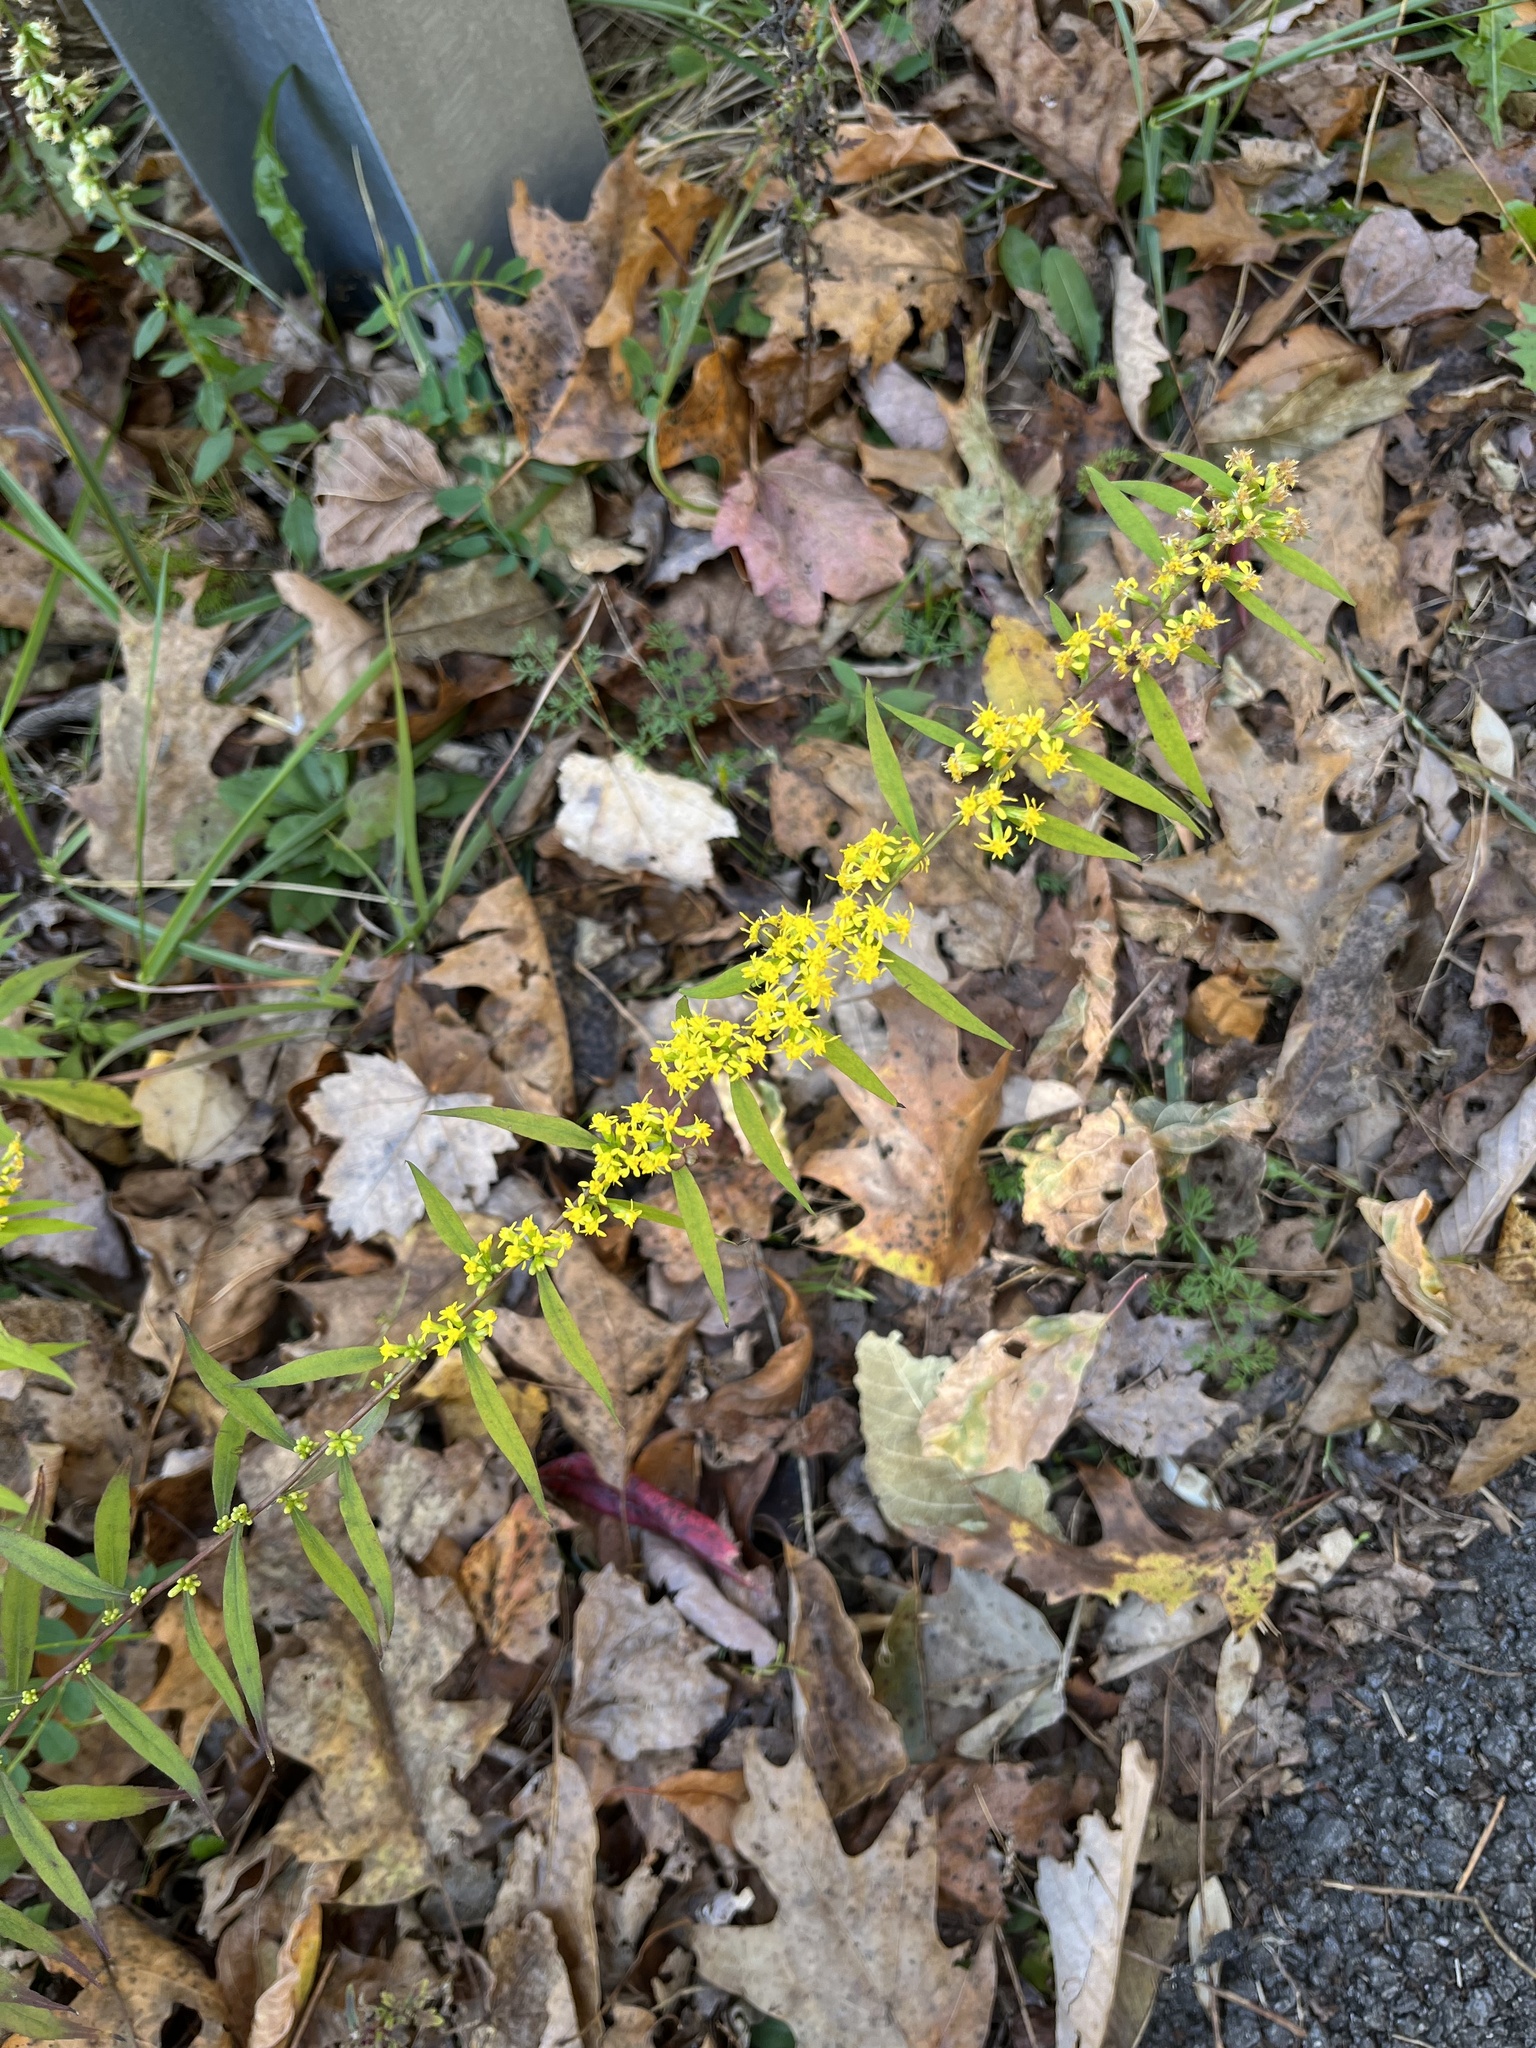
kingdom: Plantae
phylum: Tracheophyta
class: Magnoliopsida
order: Asterales
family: Asteraceae
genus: Solidago
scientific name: Solidago caesia
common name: Woodland goldenrod
